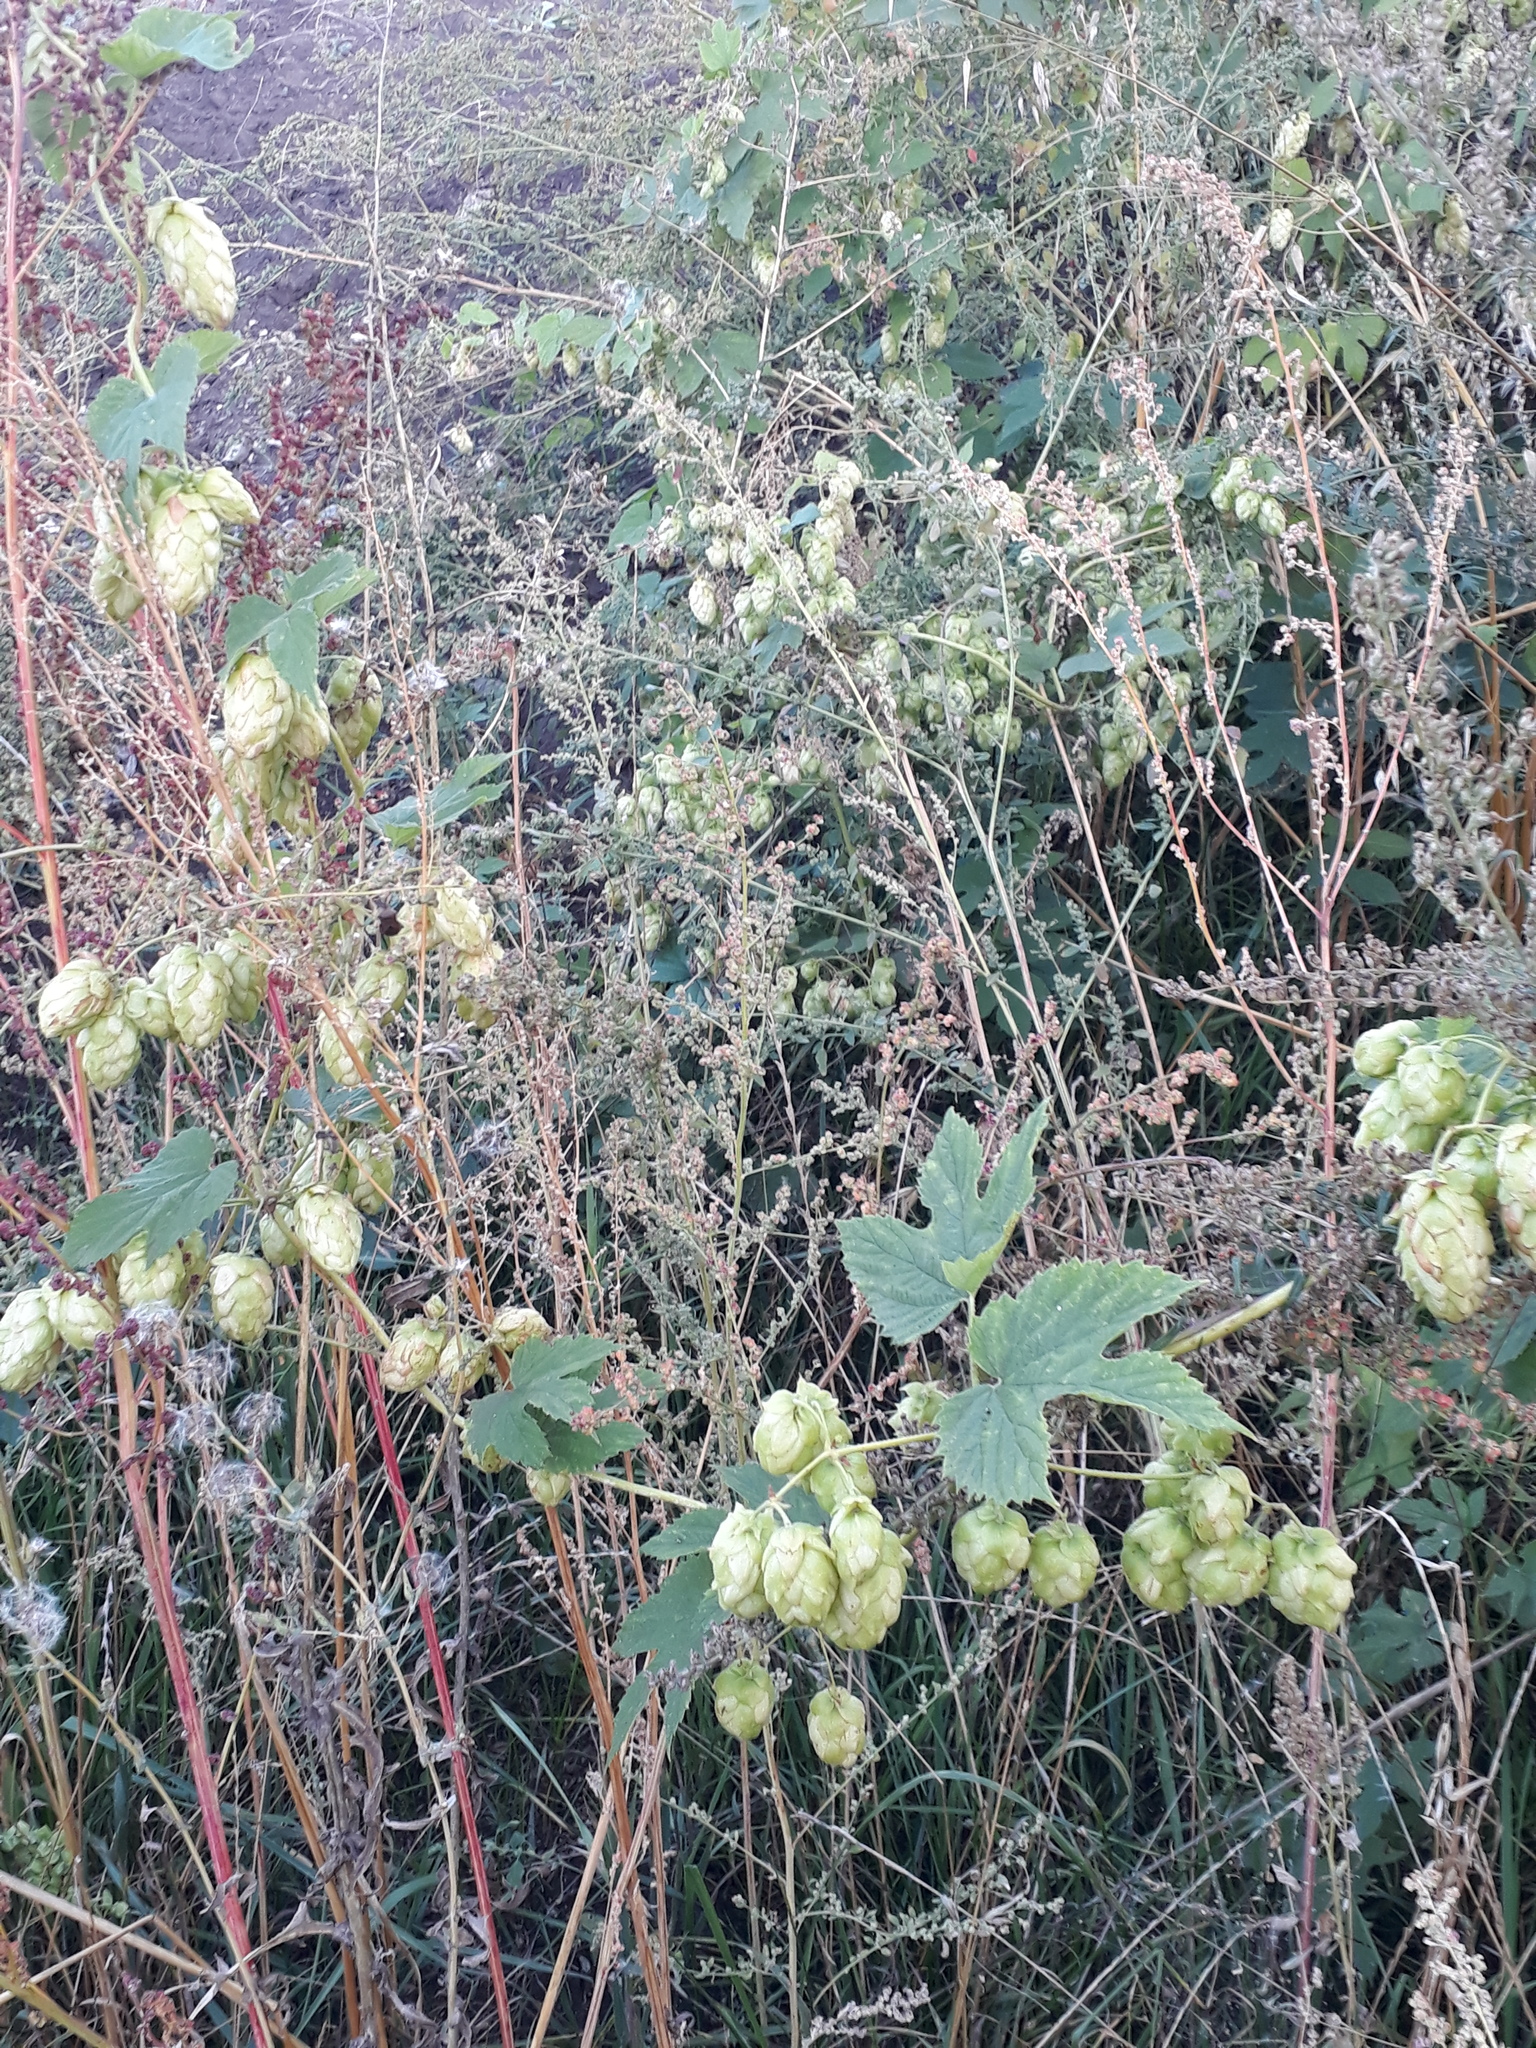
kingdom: Plantae
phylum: Tracheophyta
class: Magnoliopsida
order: Rosales
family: Cannabaceae
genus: Humulus
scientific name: Humulus lupulus
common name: Hop
